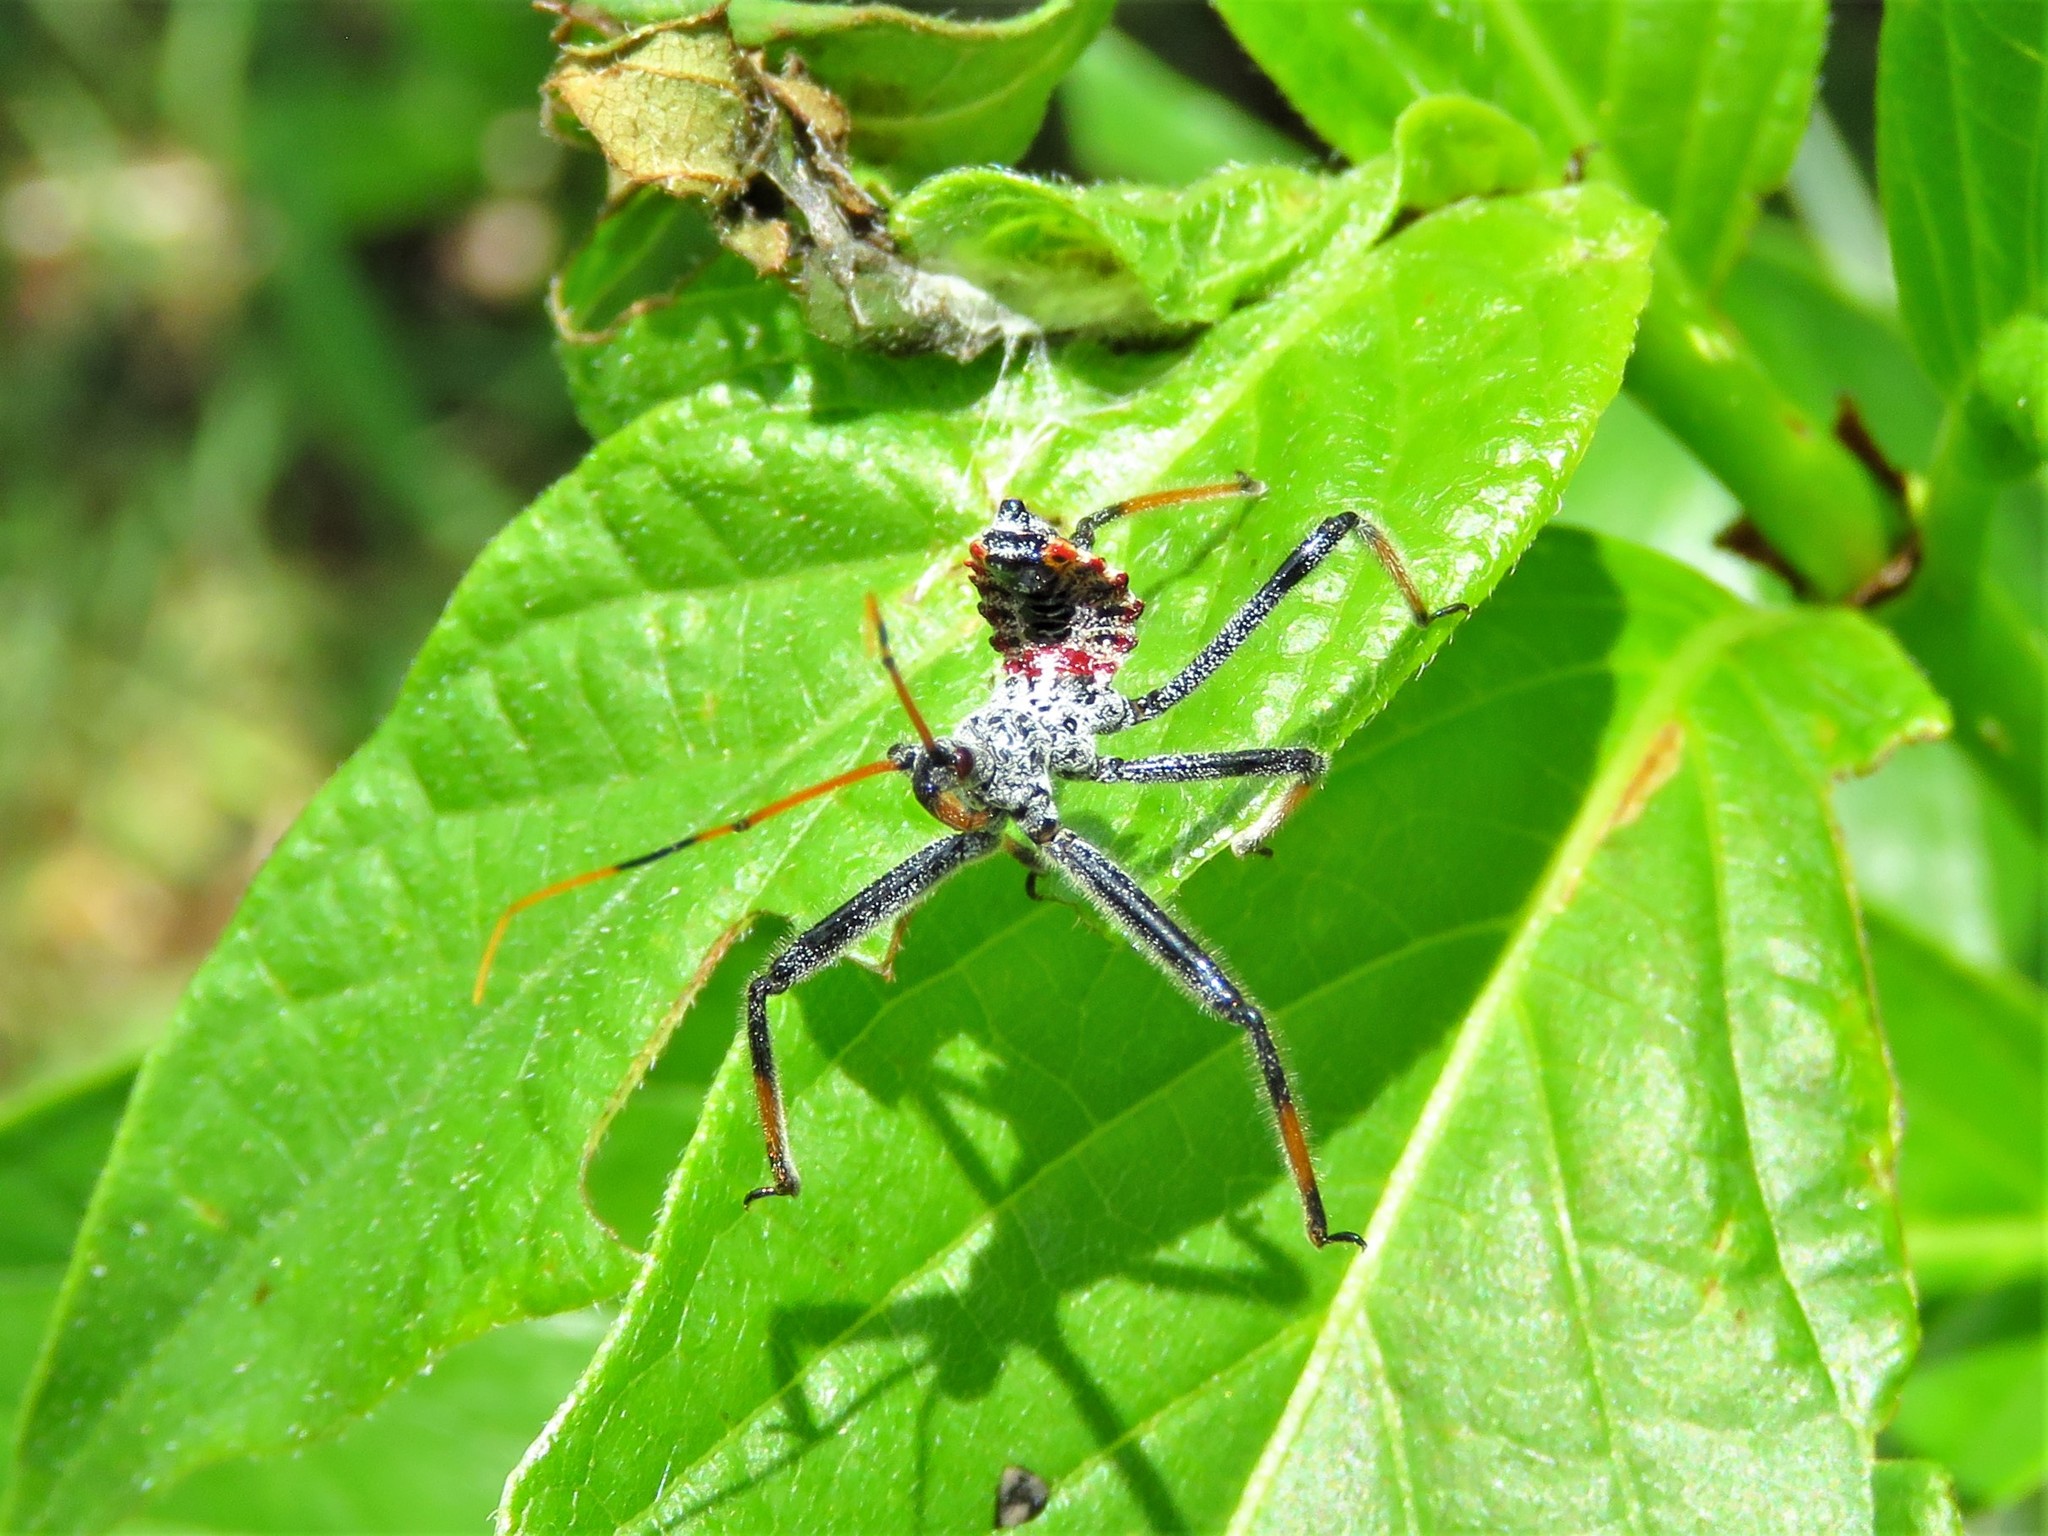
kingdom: Animalia
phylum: Arthropoda
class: Insecta
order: Hemiptera
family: Reduviidae
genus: Arilus
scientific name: Arilus cristatus
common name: North american wheel bug
